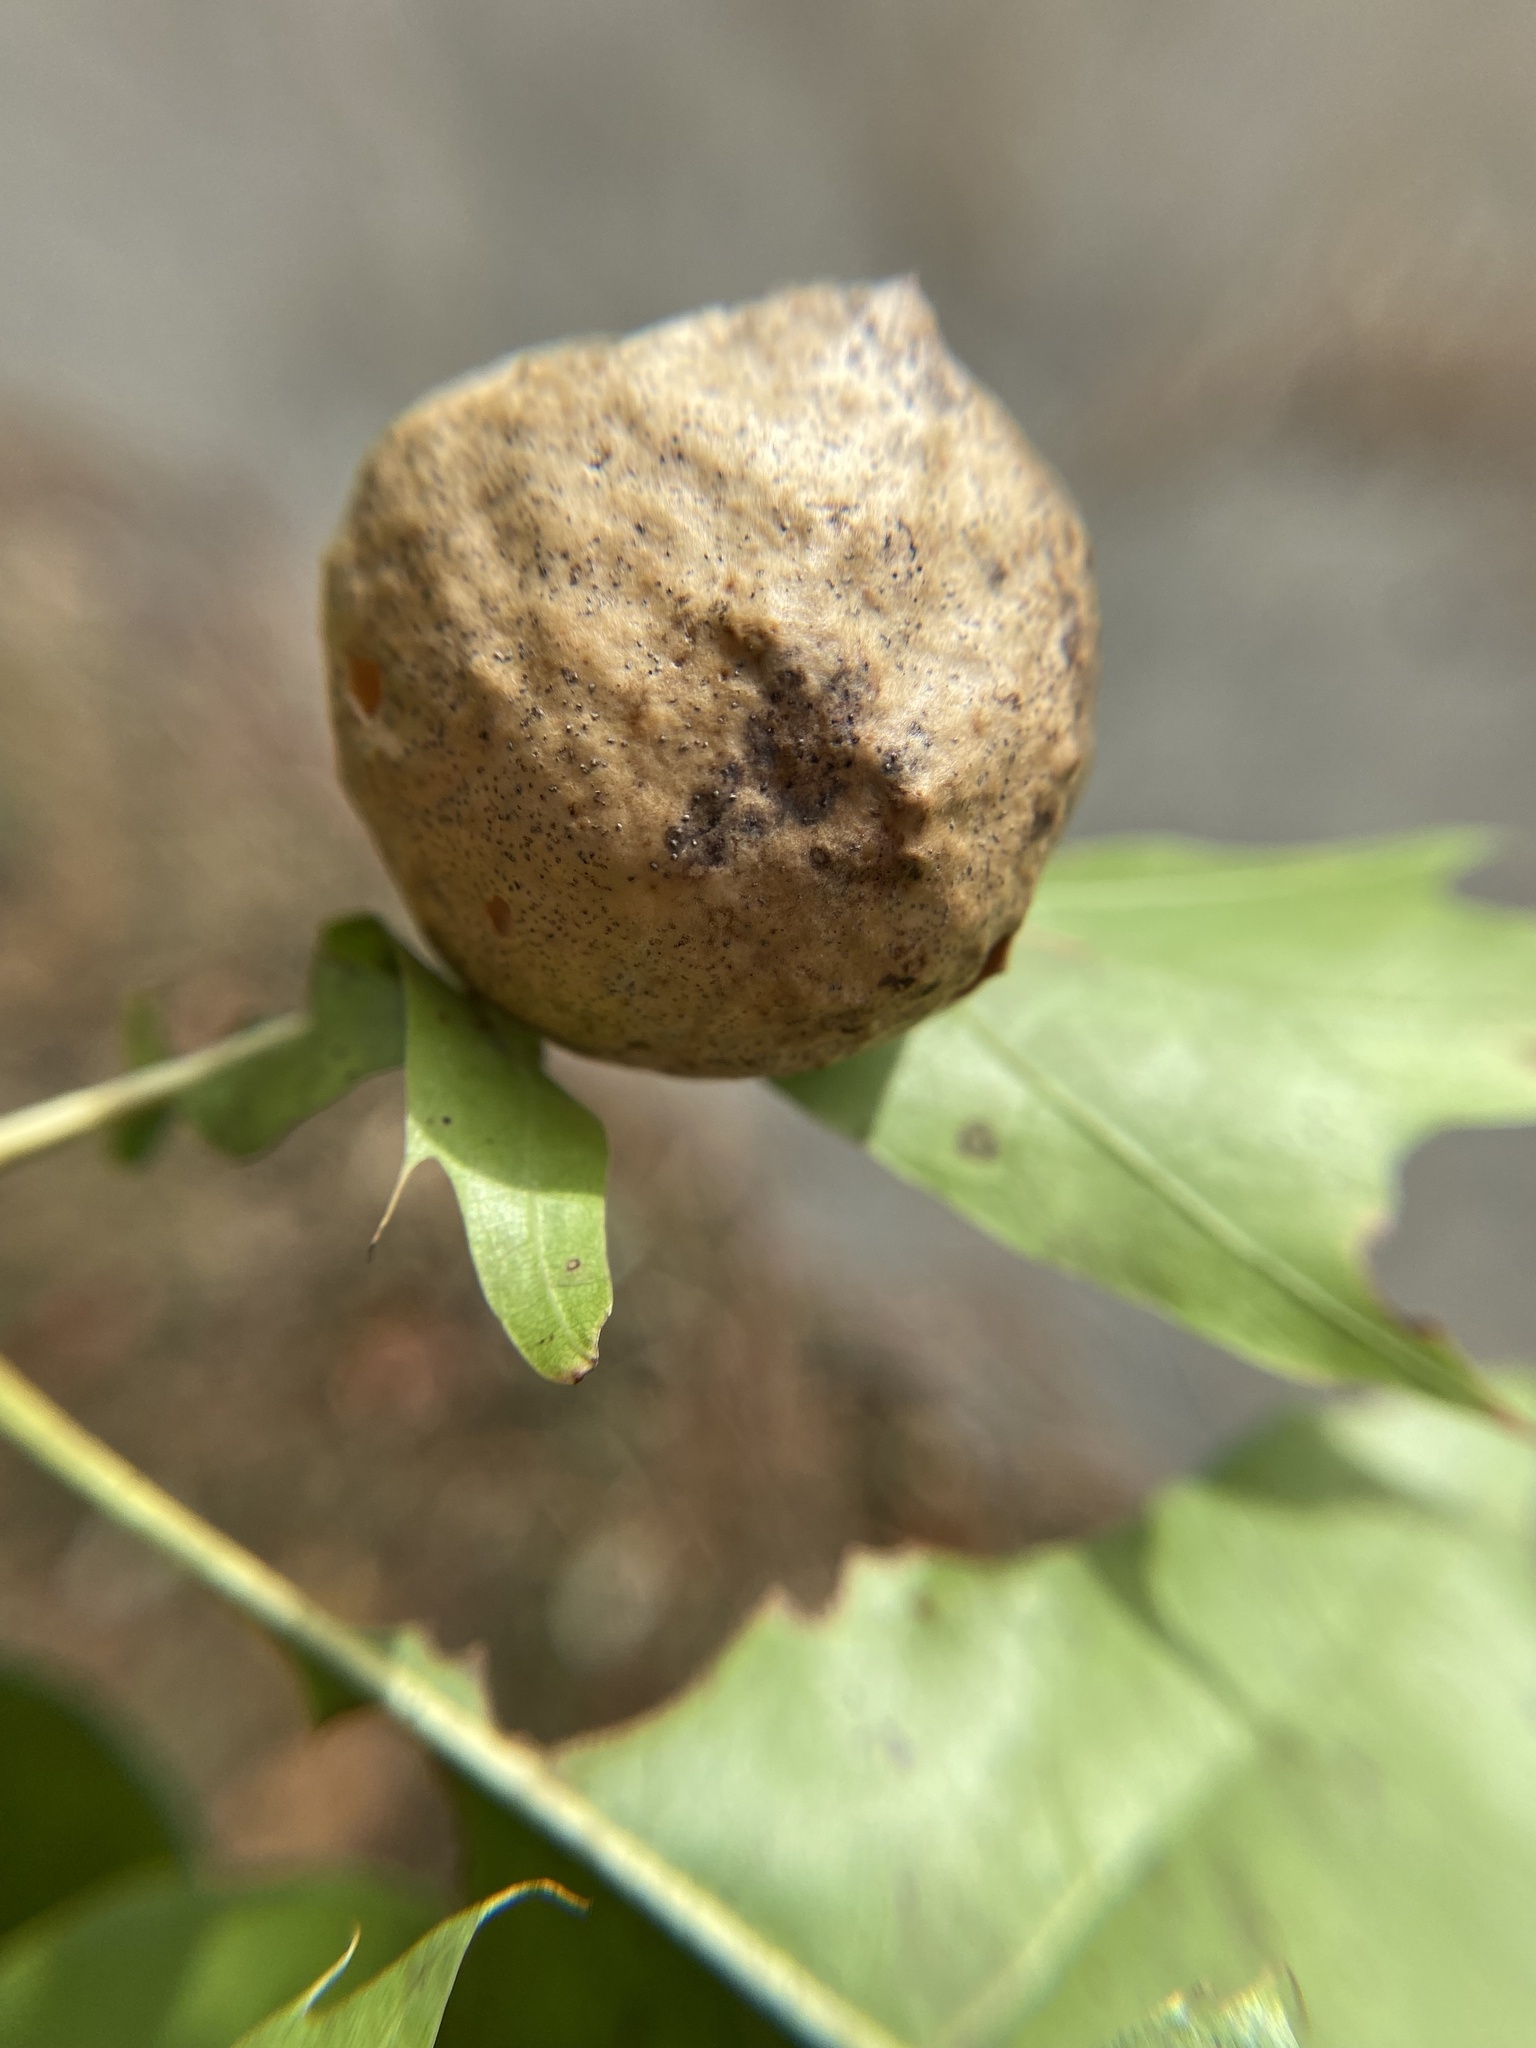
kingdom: Animalia
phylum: Arthropoda
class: Insecta
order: Hymenoptera
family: Cynipidae
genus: Amphibolips
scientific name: Amphibolips
